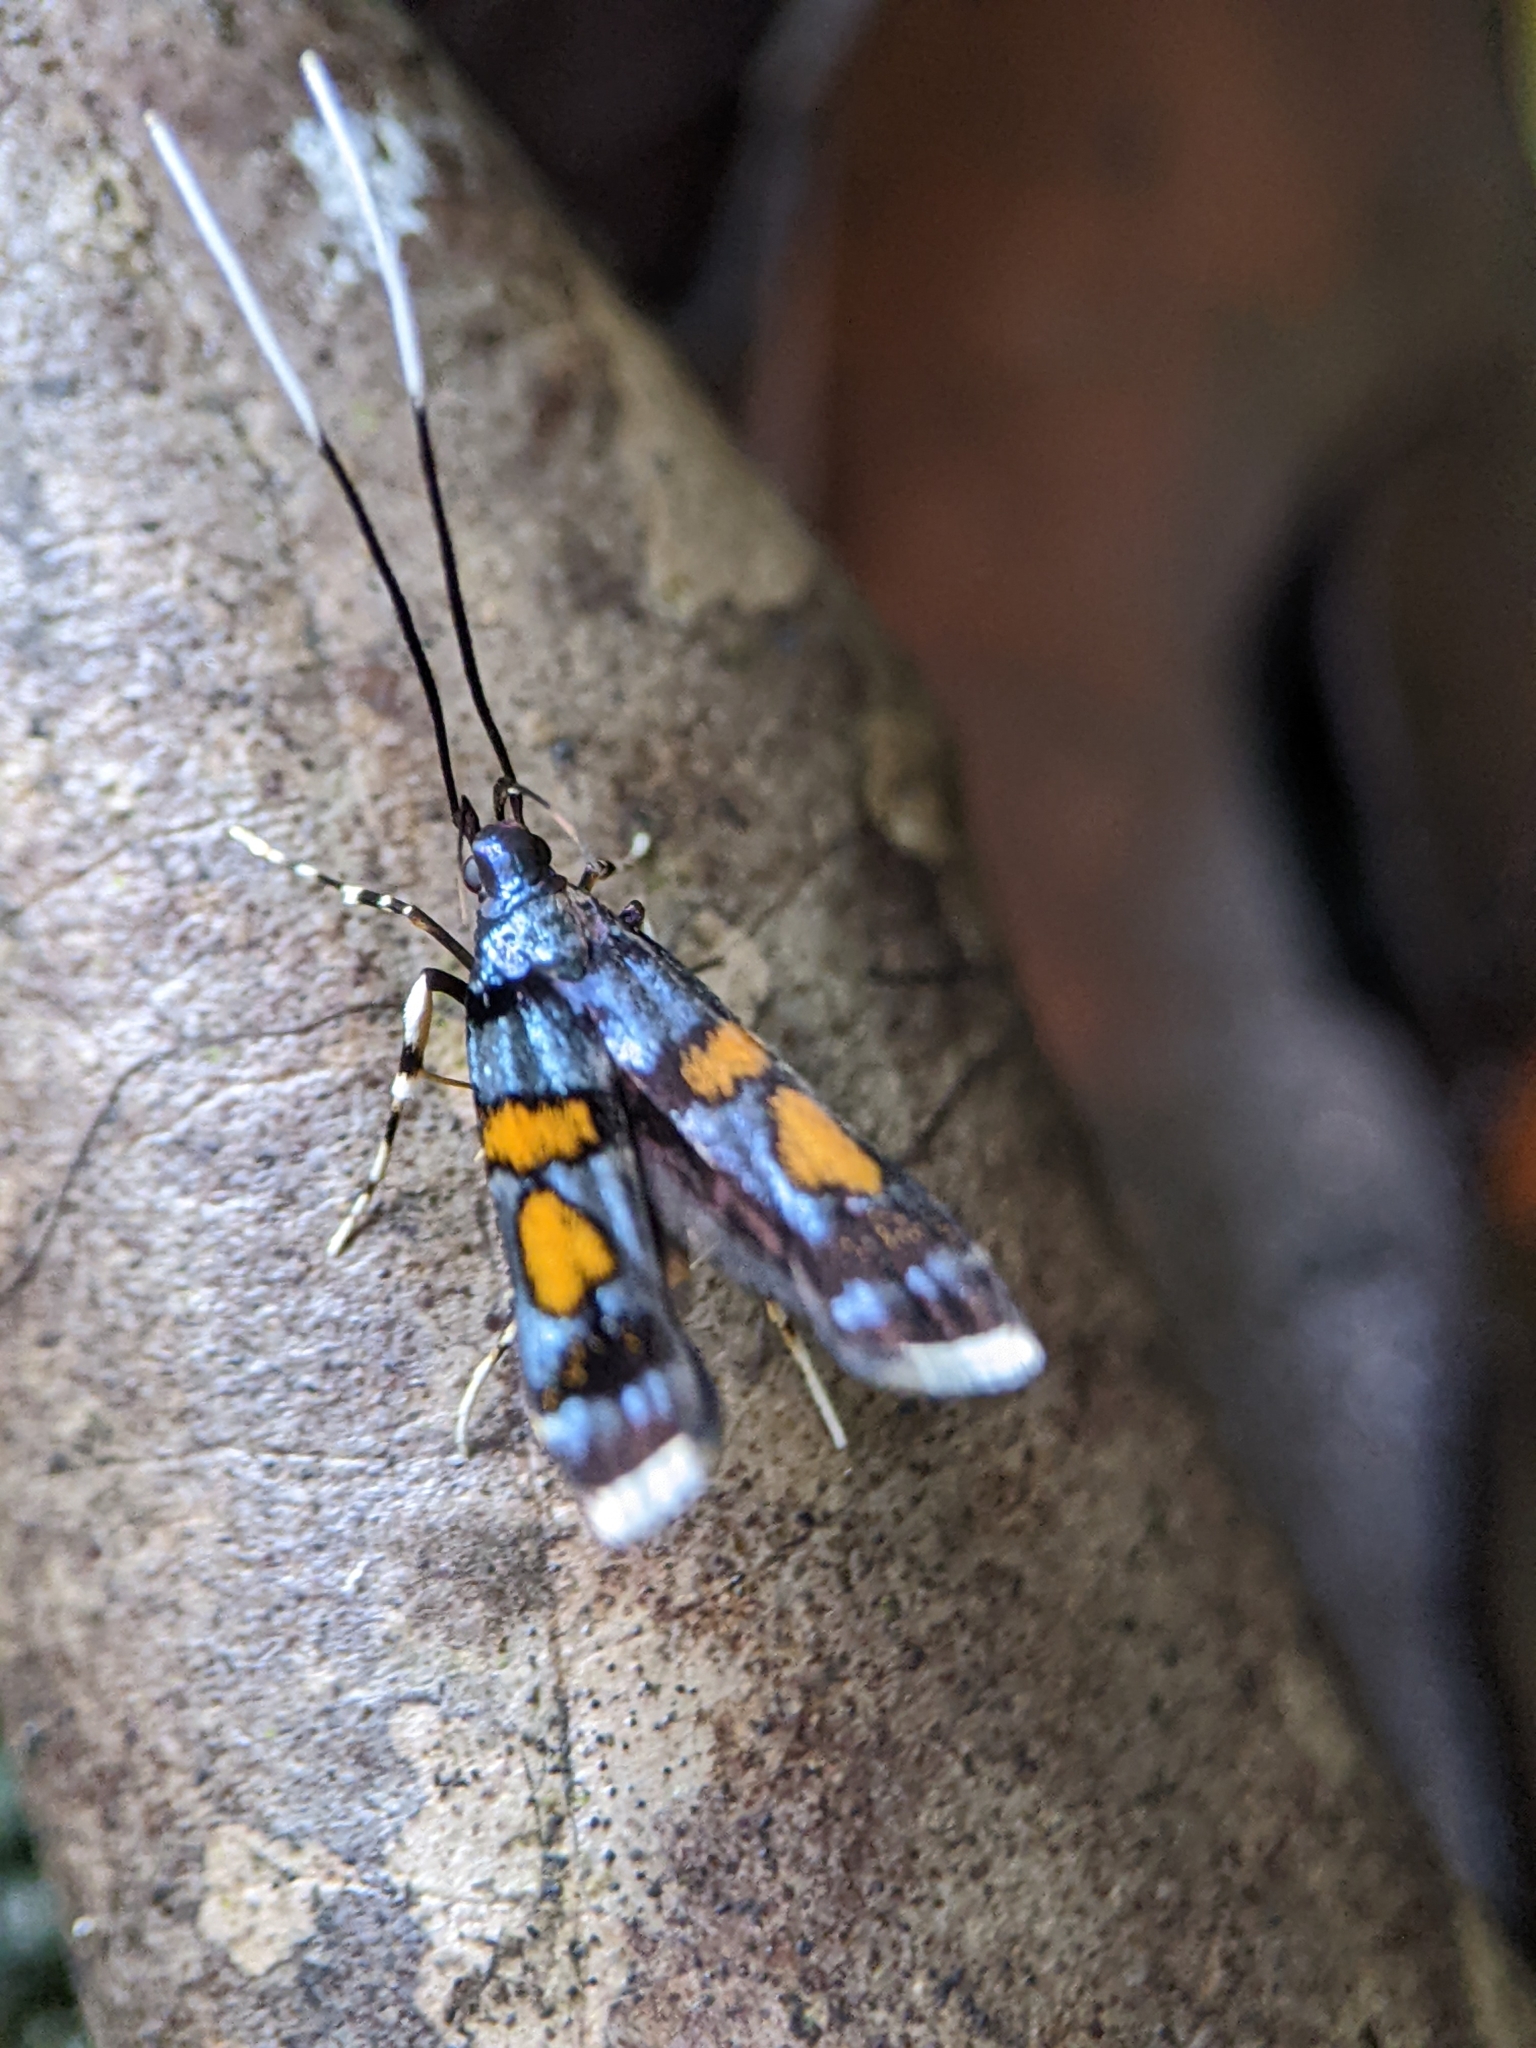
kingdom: Animalia
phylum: Arthropoda
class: Insecta
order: Lepidoptera
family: Lecithoceridae
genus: Tiriza
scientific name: Tiriza leucotella
